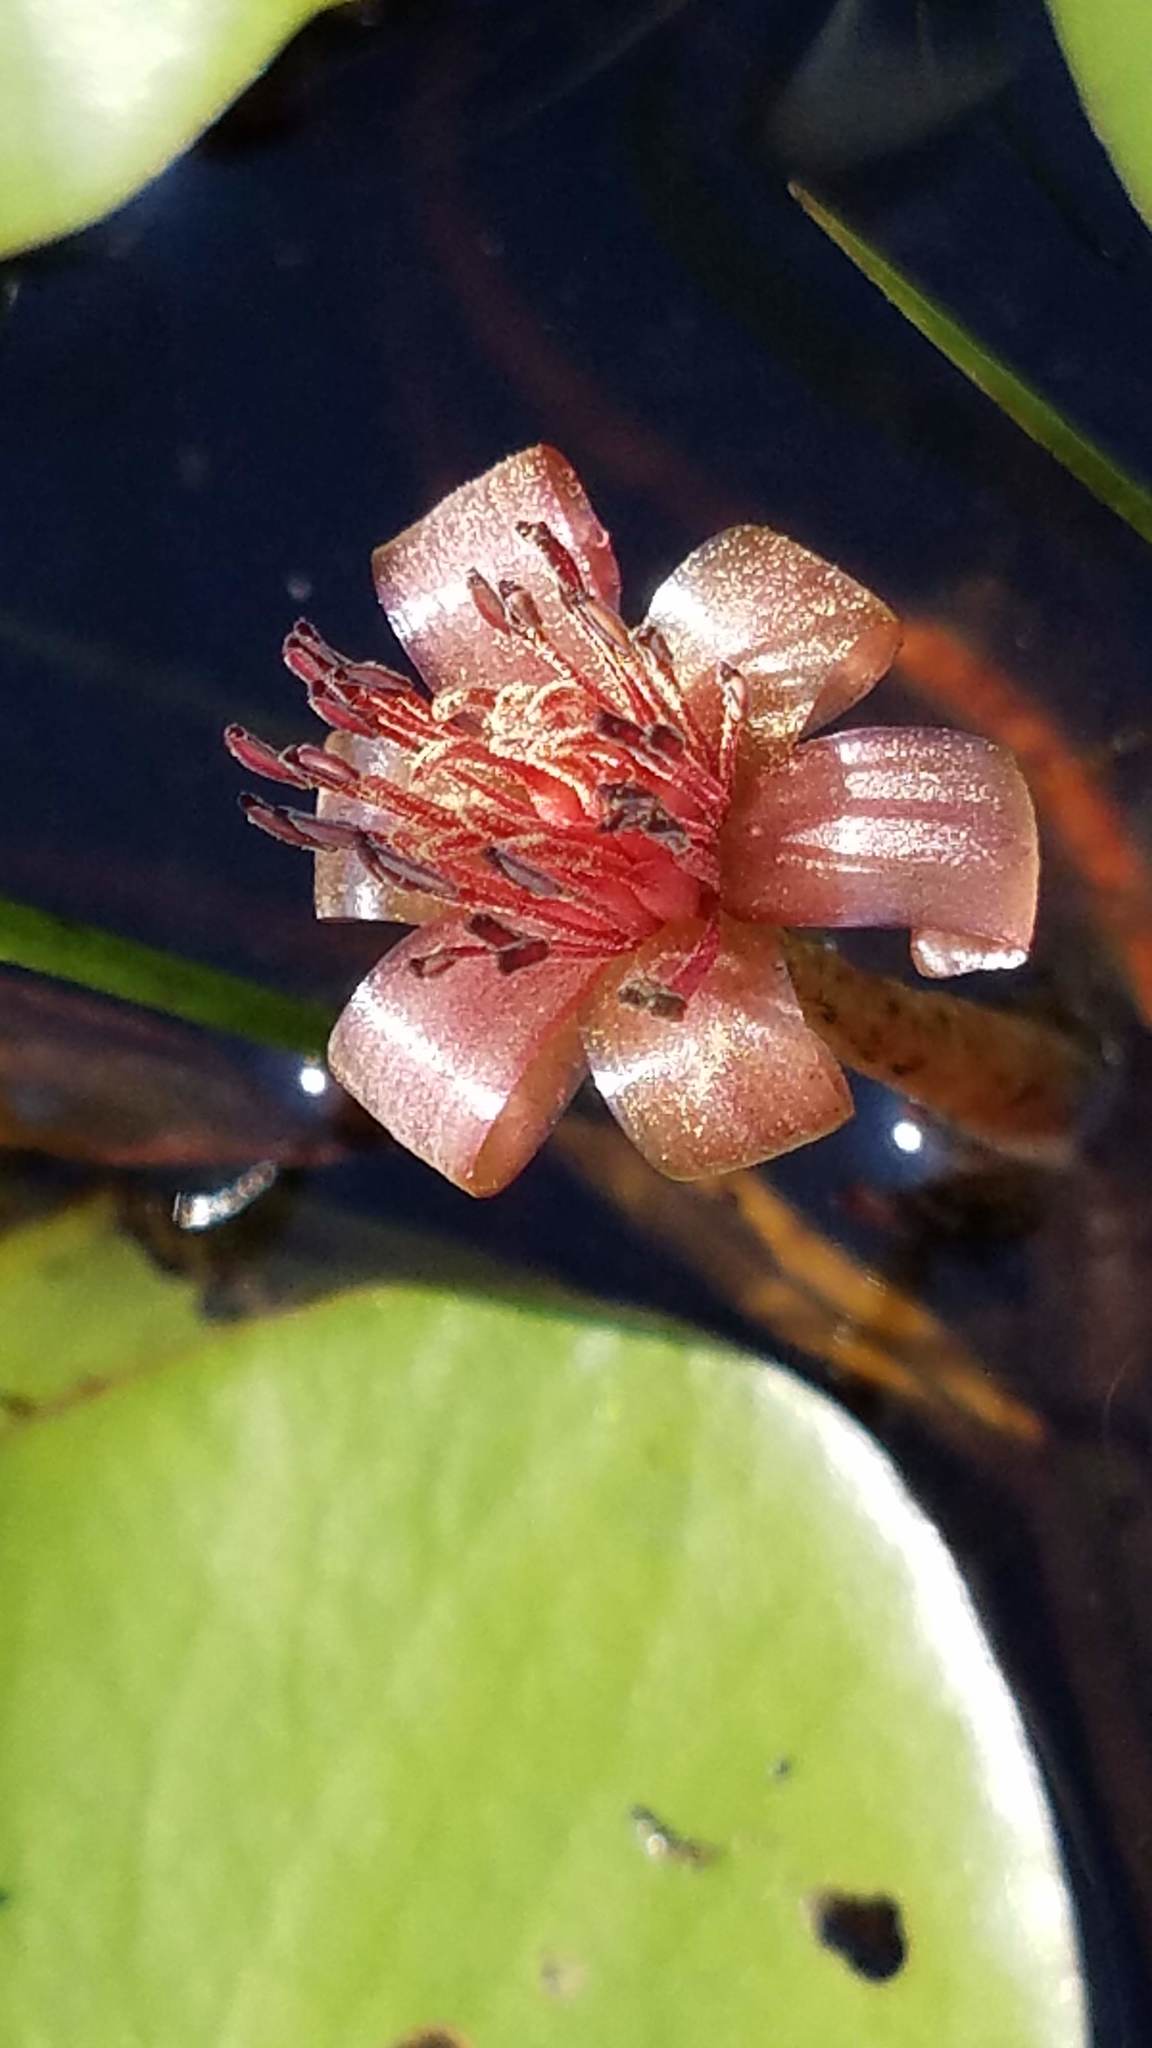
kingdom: Plantae
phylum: Tracheophyta
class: Magnoliopsida
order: Nymphaeales
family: Cabombaceae
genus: Brasenia
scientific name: Brasenia schreberi
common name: Water-shield
